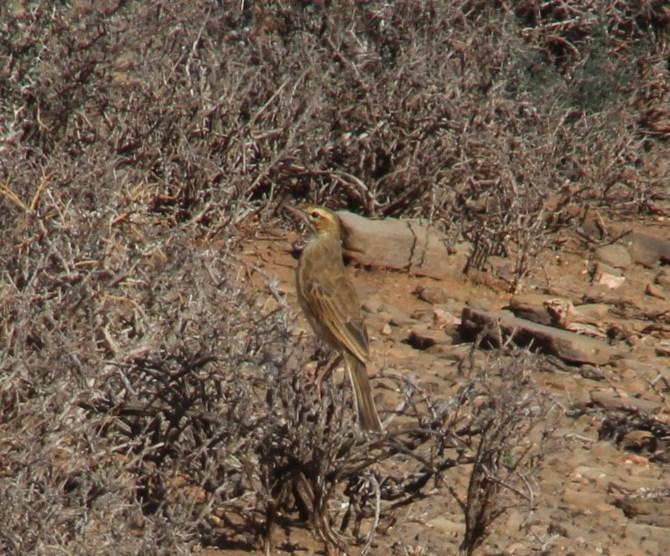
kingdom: Animalia
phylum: Chordata
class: Aves
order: Passeriformes
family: Motacillidae
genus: Anthus
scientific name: Anthus nicholsoni
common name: Nicholson's pipit
